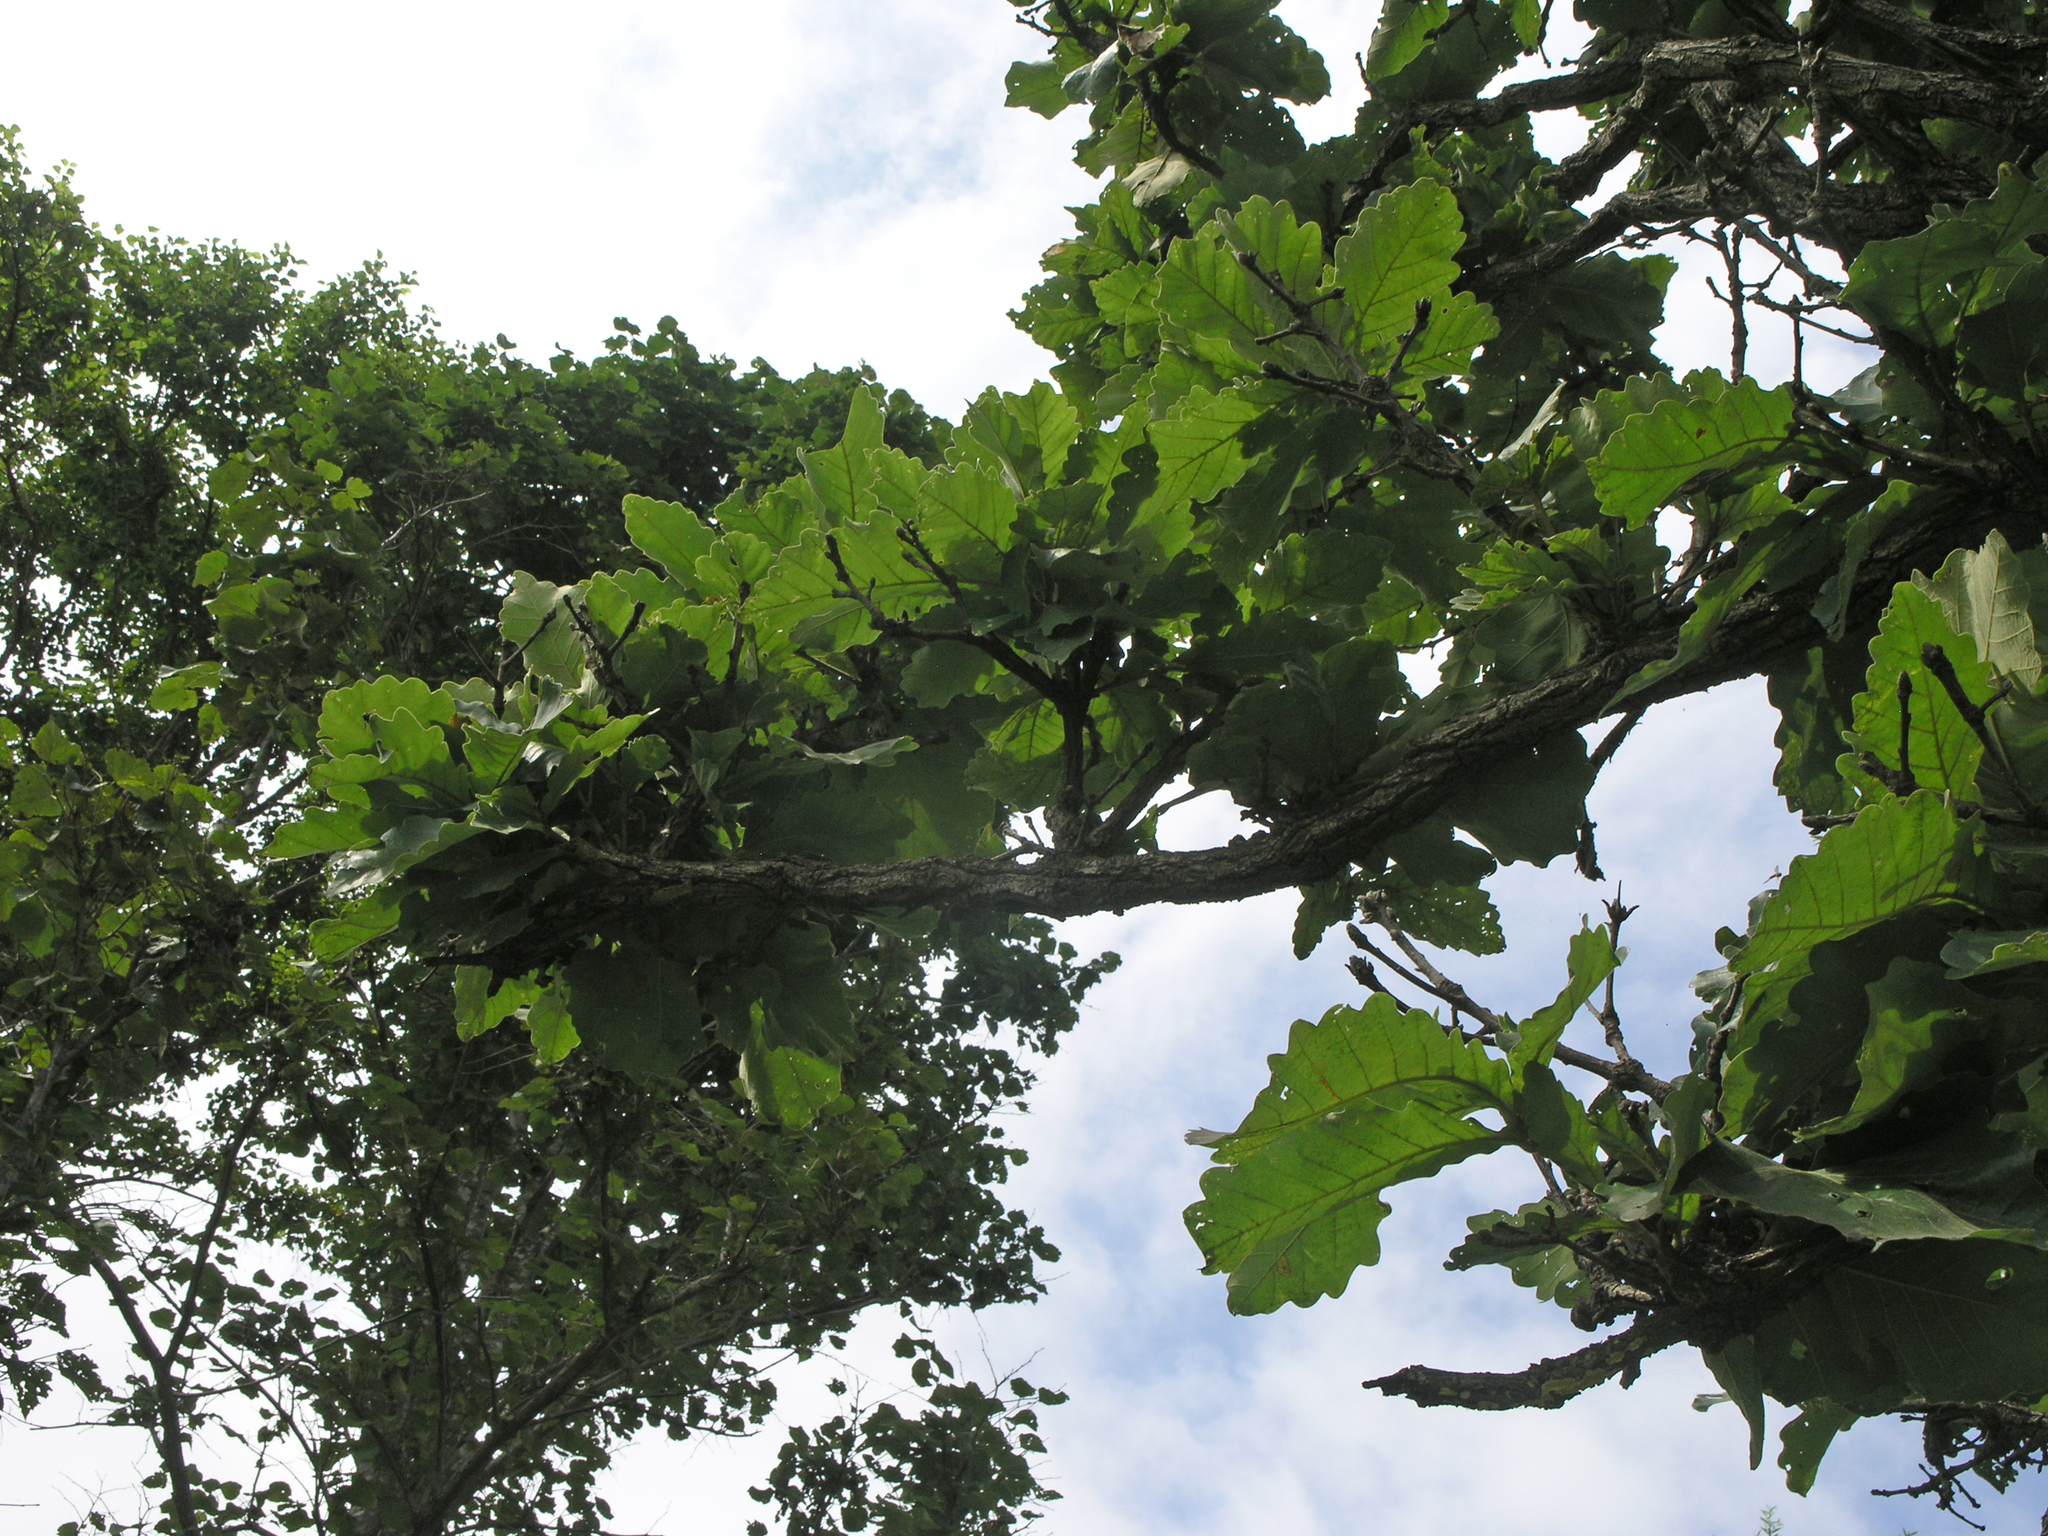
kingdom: Plantae
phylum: Tracheophyta
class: Magnoliopsida
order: Fagales
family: Fagaceae
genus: Quercus
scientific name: Quercus dentata
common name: Daimyo oak
